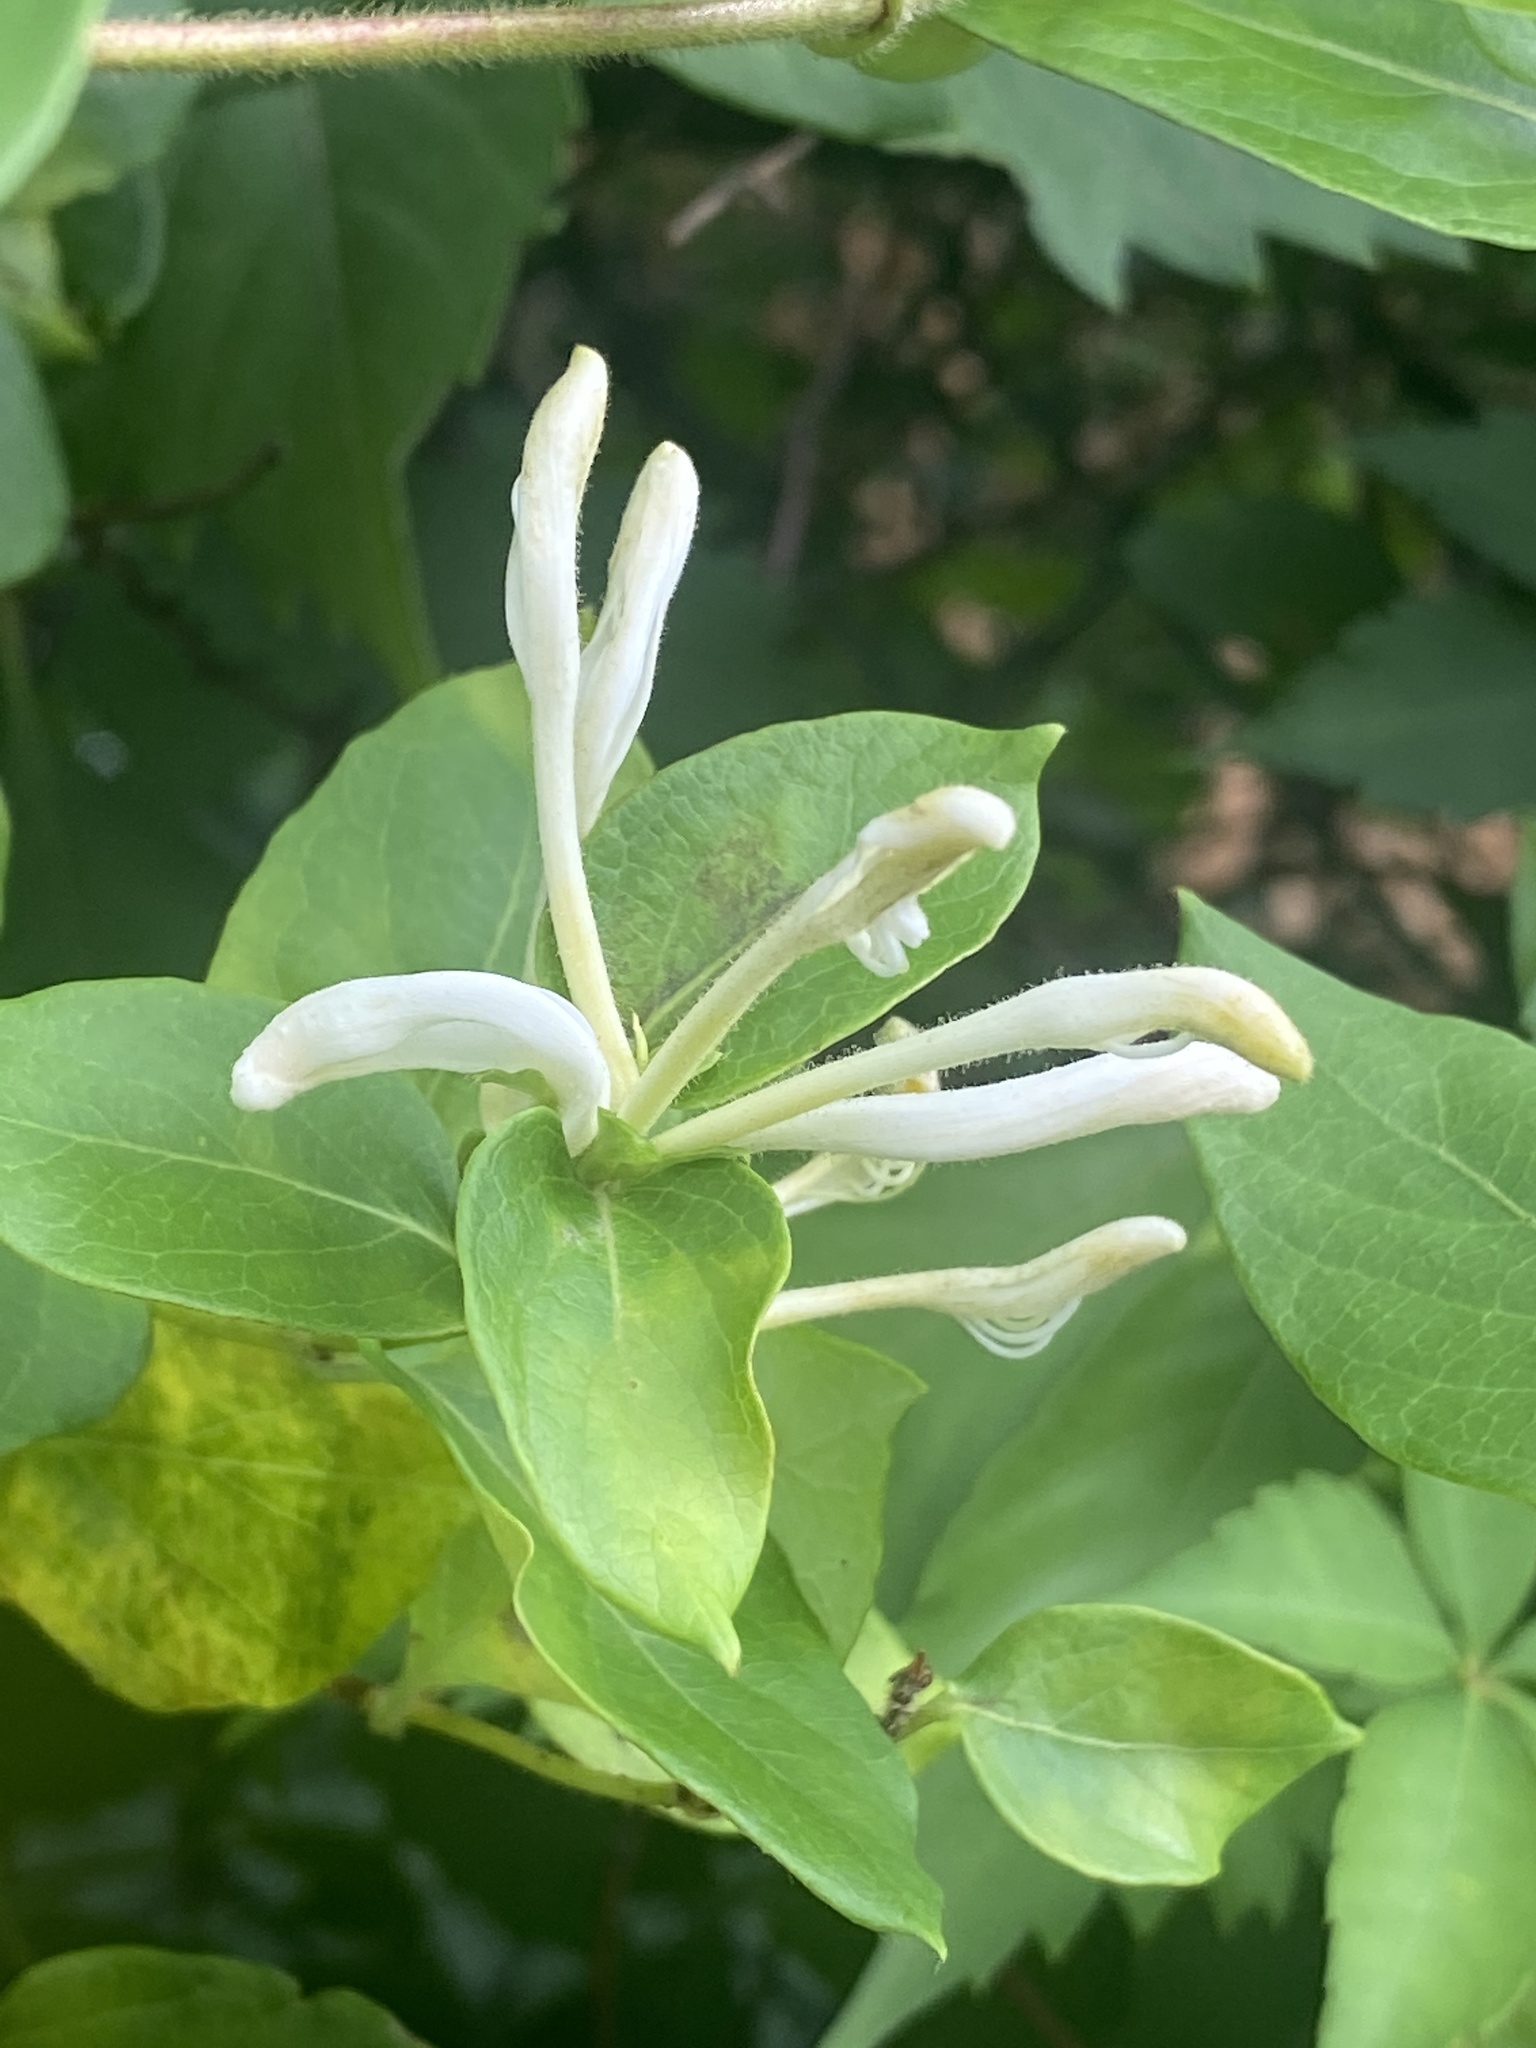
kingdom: Plantae
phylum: Tracheophyta
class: Magnoliopsida
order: Dipsacales
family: Caprifoliaceae
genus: Lonicera
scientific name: Lonicera japonica
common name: Japanese honeysuckle
